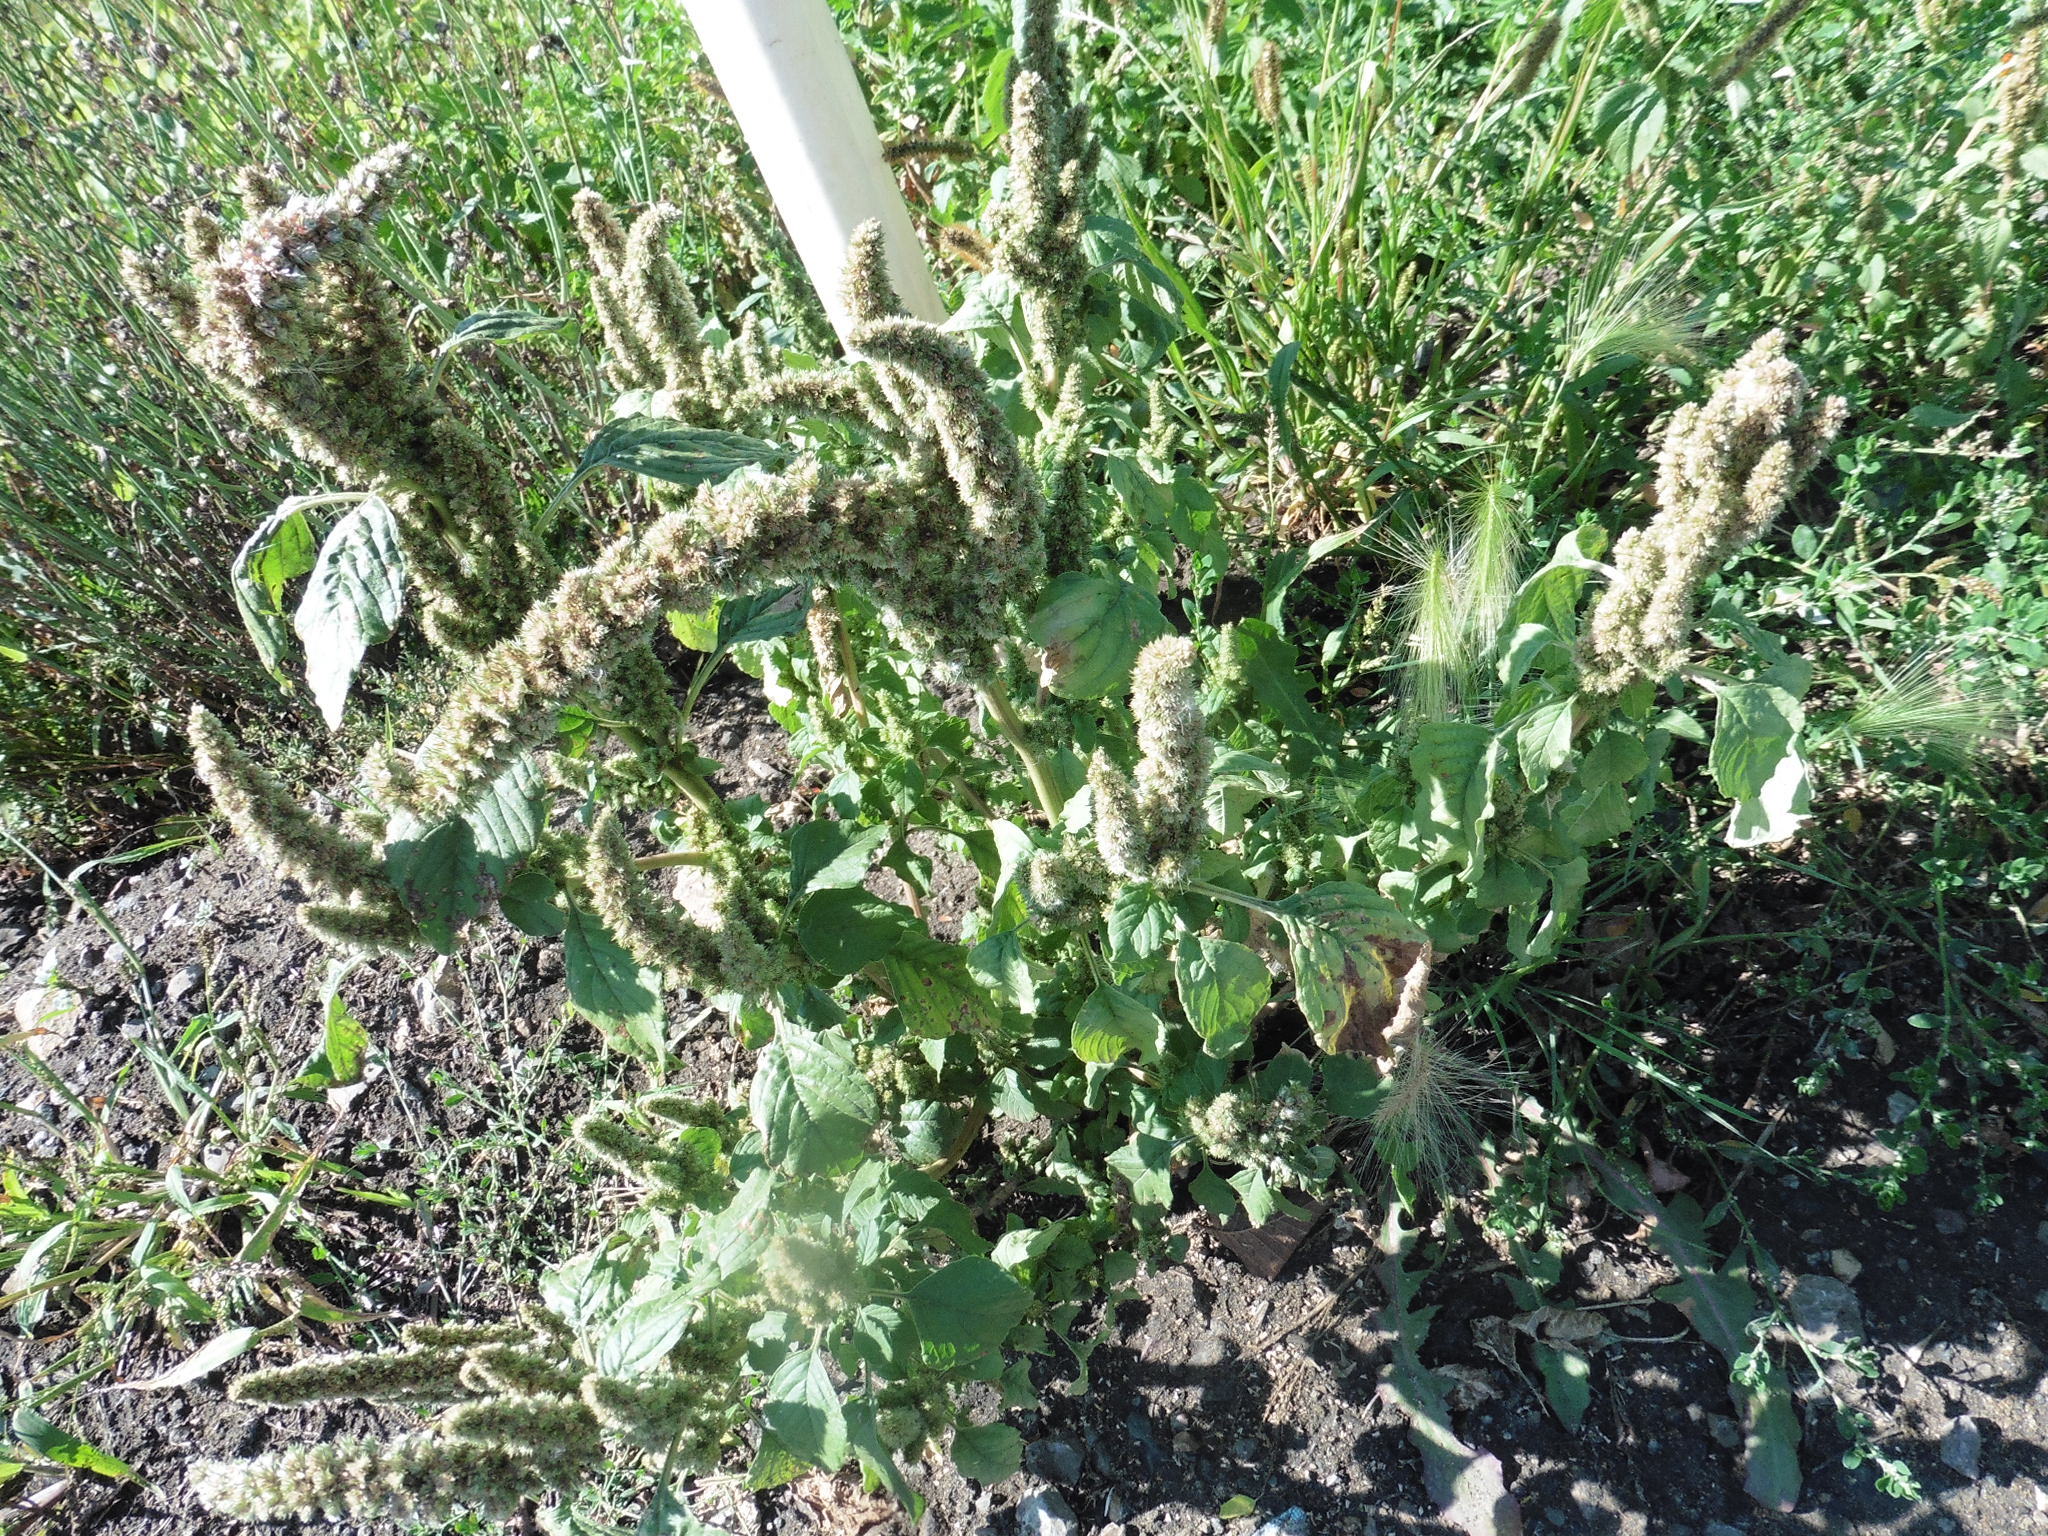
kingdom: Plantae
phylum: Tracheophyta
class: Magnoliopsida
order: Caryophyllales
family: Amaranthaceae
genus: Amaranthus
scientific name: Amaranthus retroflexus
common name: Redroot amaranth
